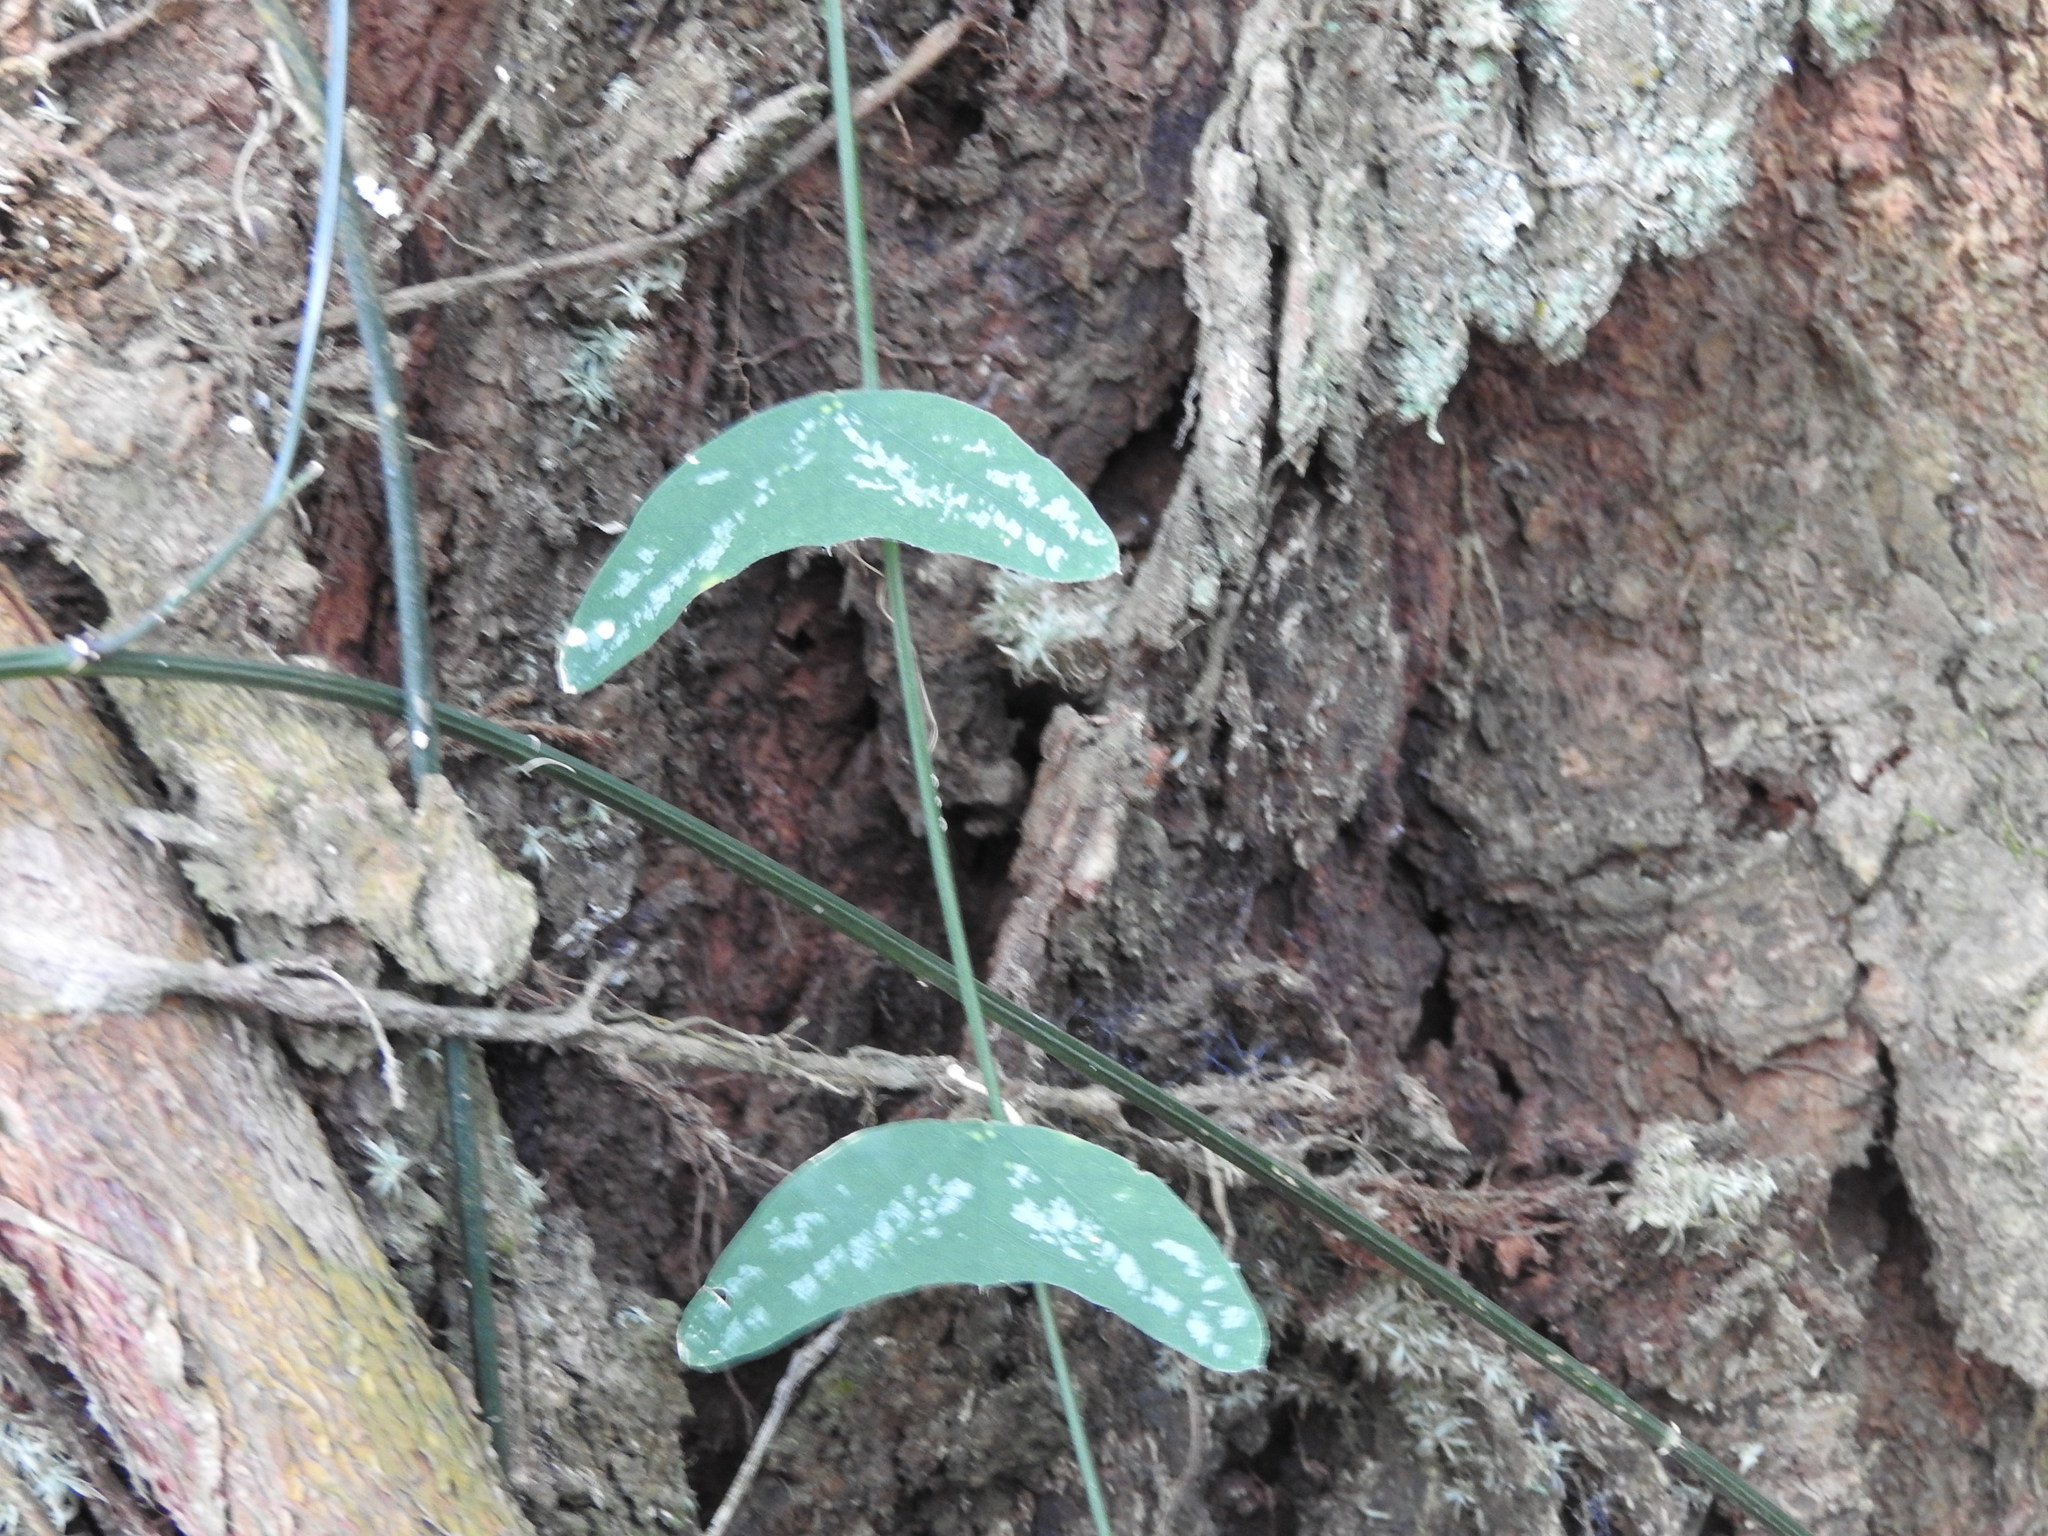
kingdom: Plantae
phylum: Tracheophyta
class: Magnoliopsida
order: Malpighiales
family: Passifloraceae
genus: Passiflora
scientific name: Passiflora biflora
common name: Twoflower passionflower
